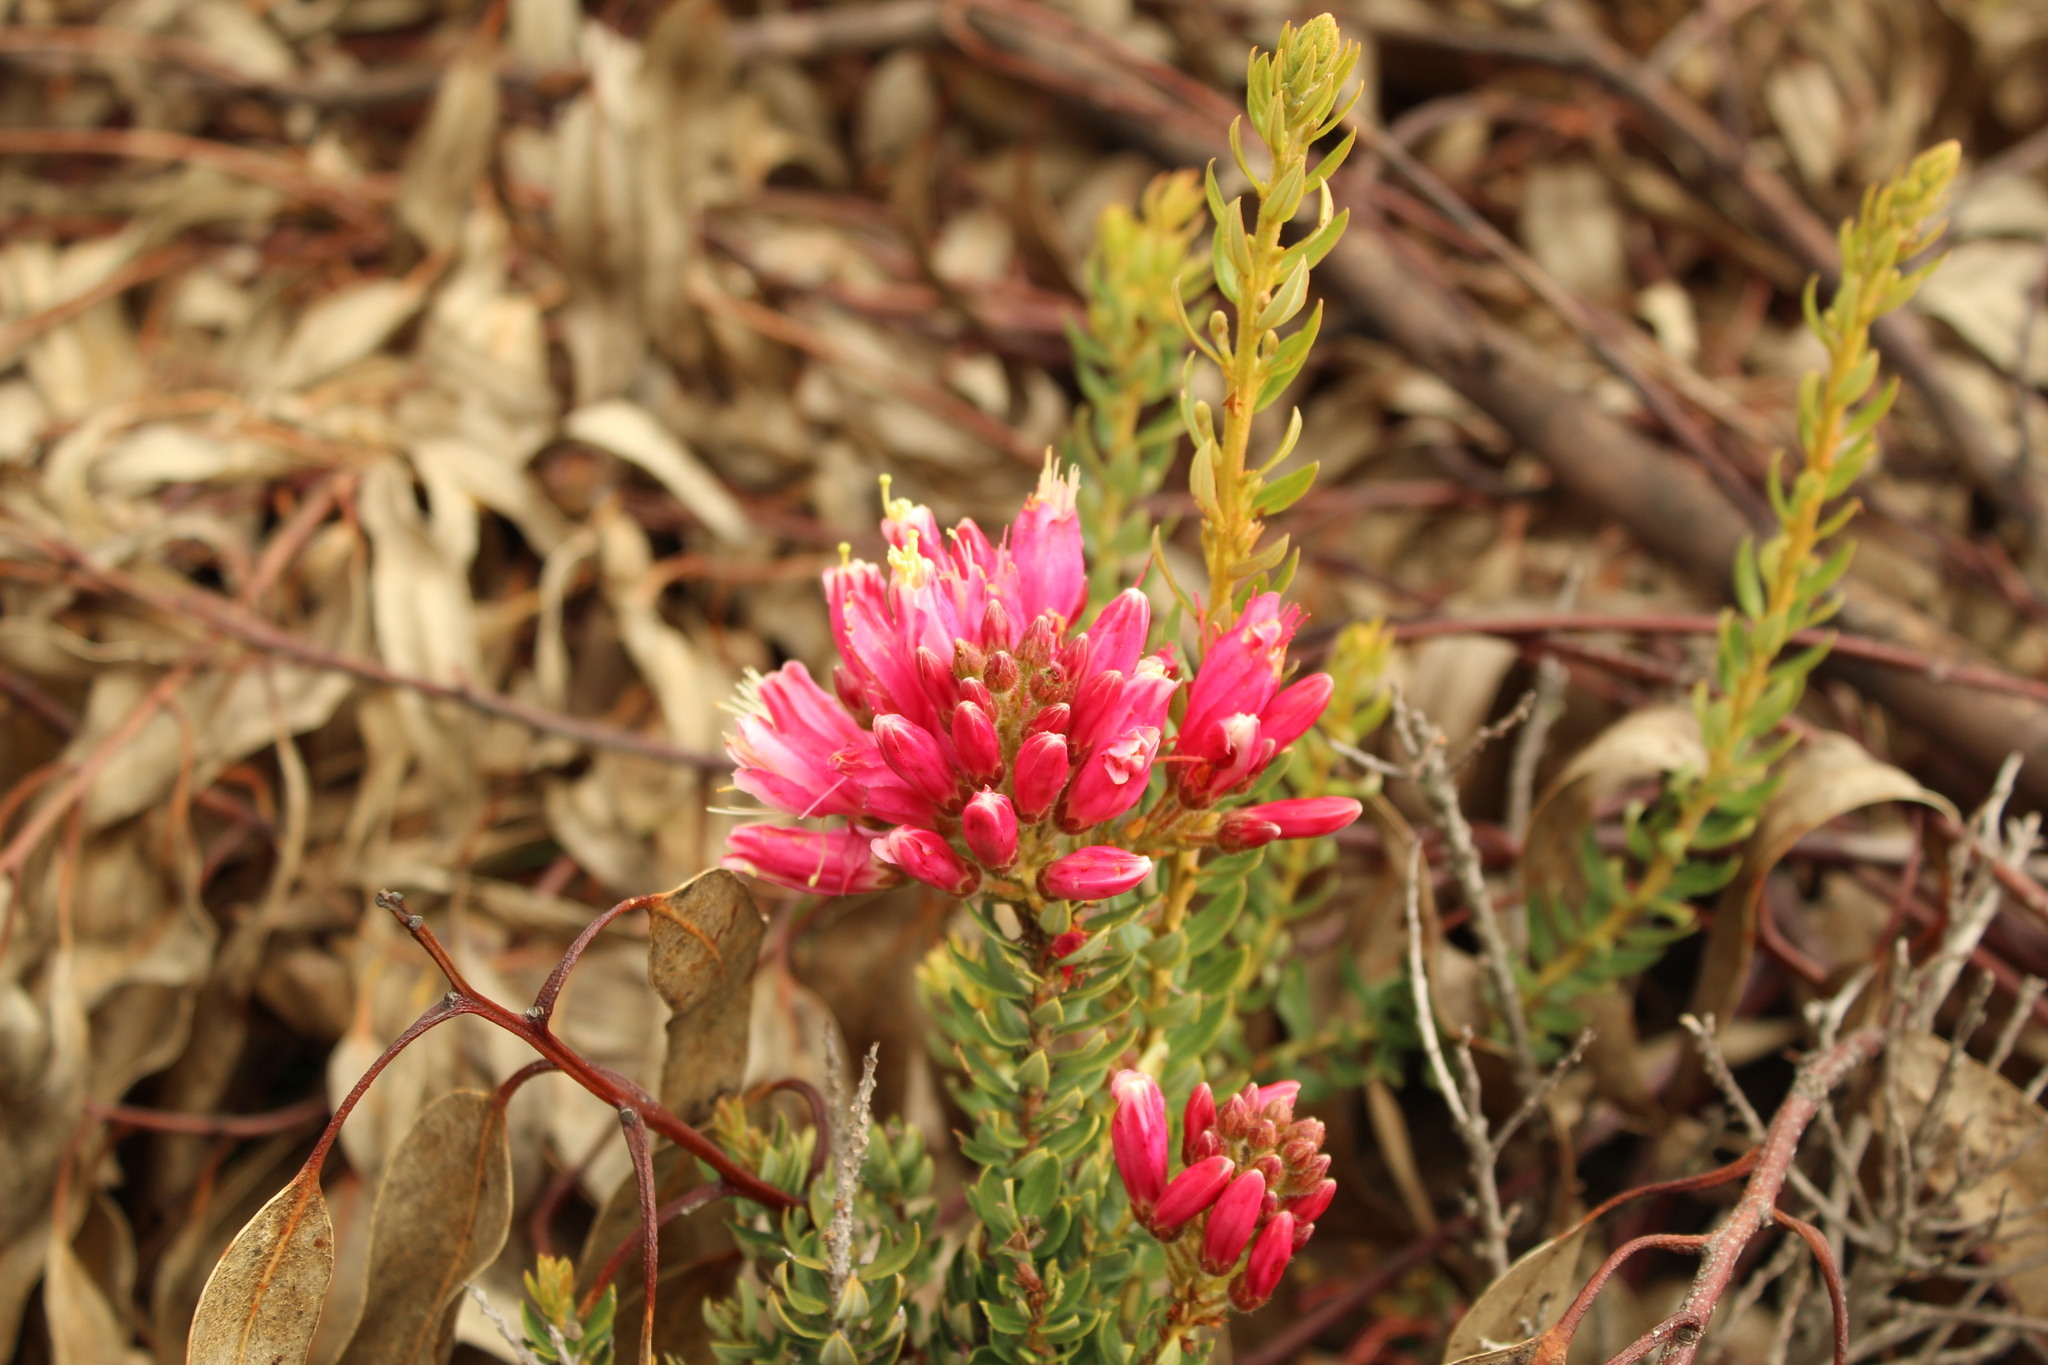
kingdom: Plantae
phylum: Tracheophyta
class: Magnoliopsida
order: Ericales
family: Ericaceae
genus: Bejaria
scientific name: Bejaria mathewsii
